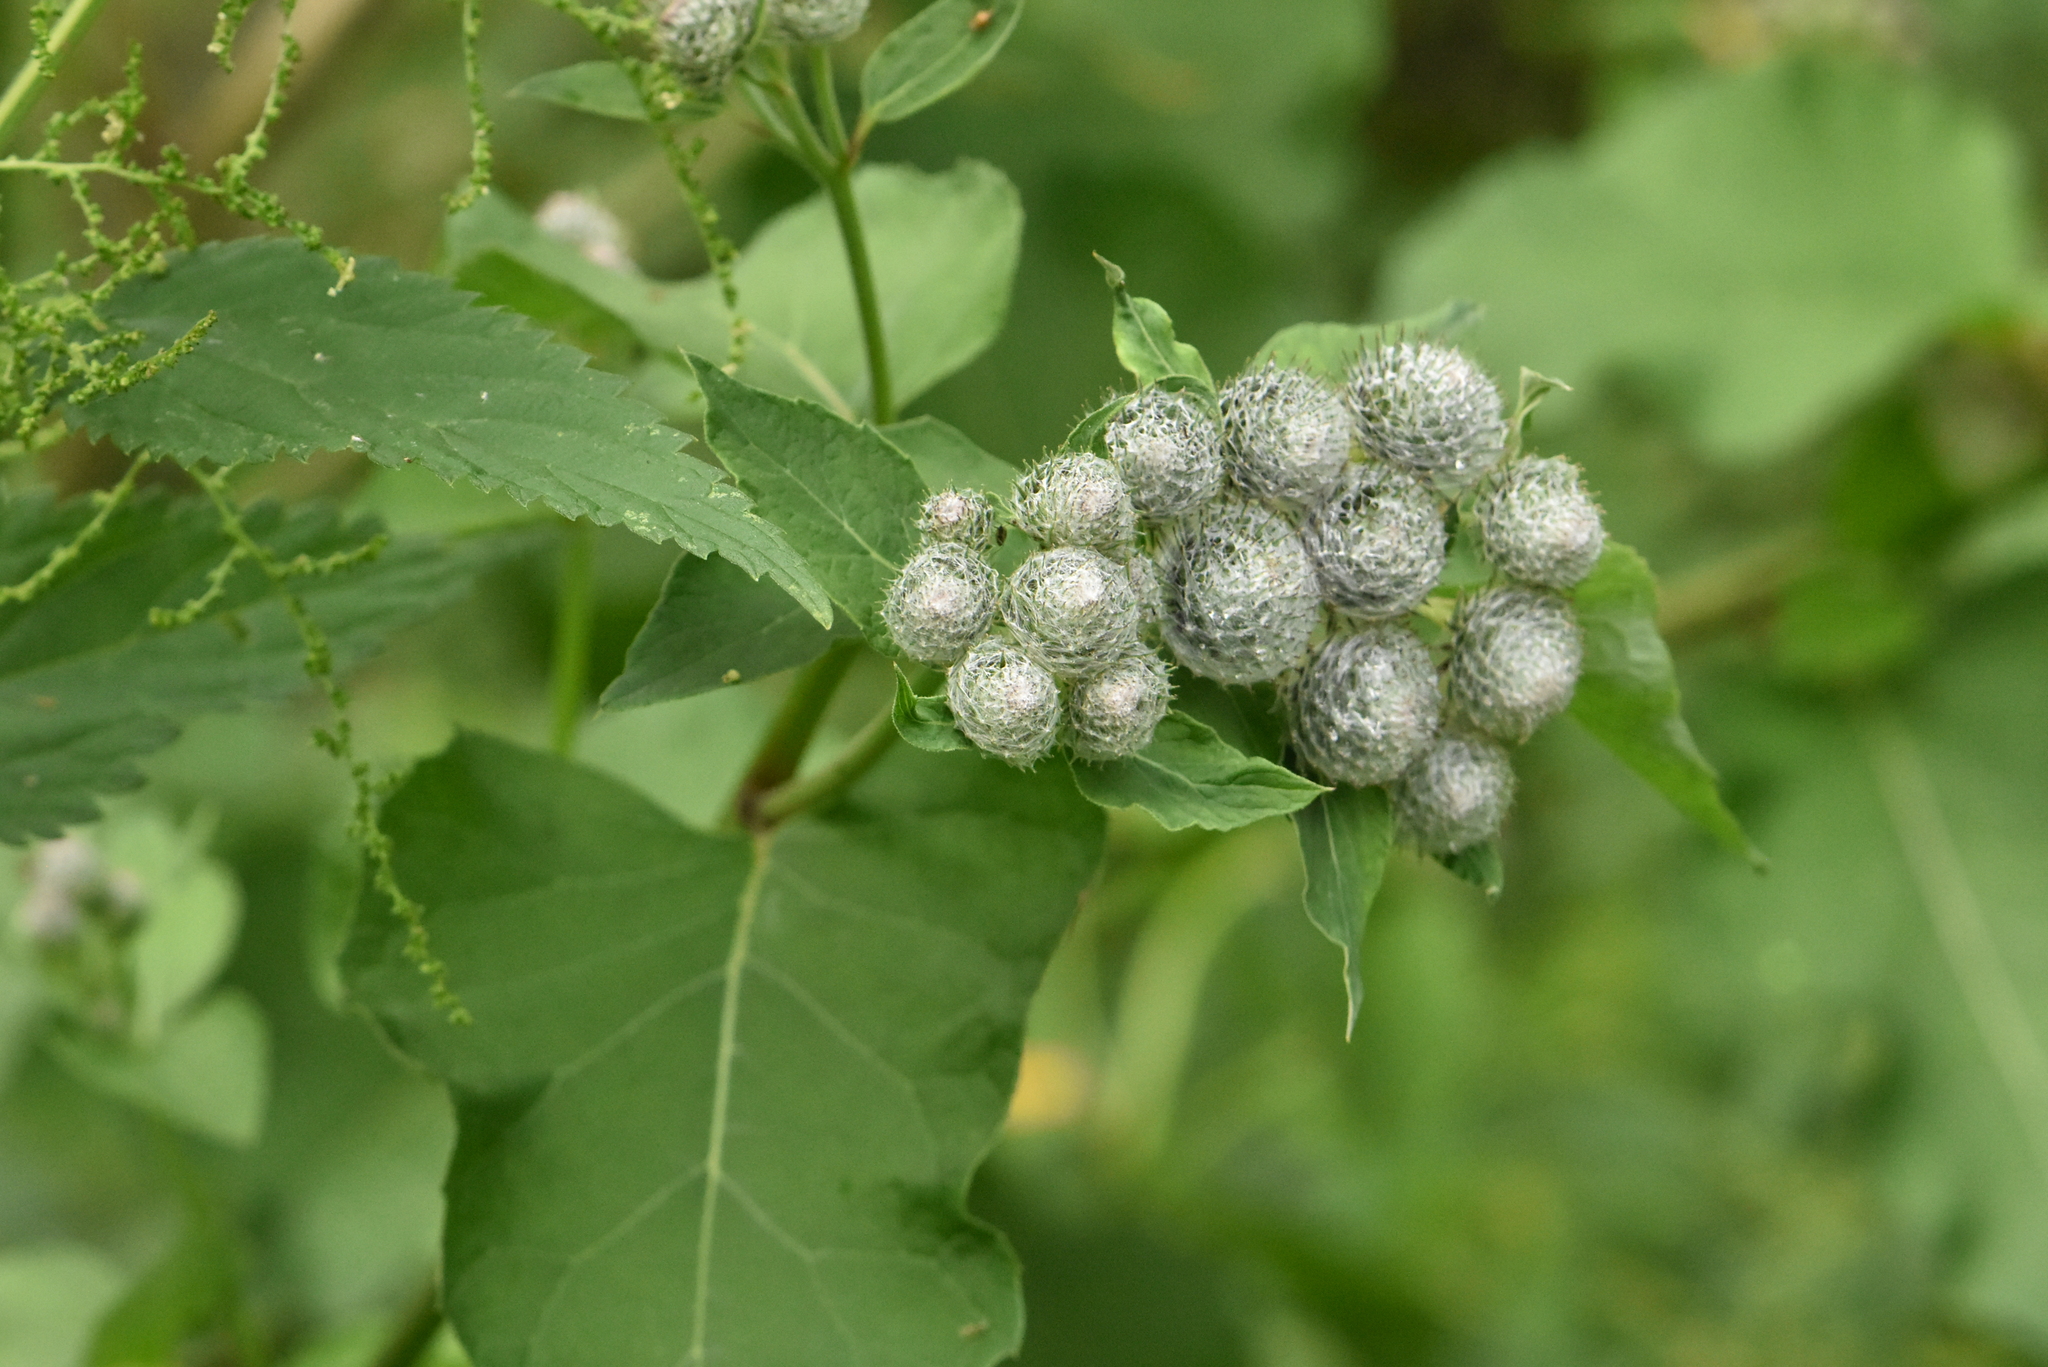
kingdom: Plantae
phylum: Tracheophyta
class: Magnoliopsida
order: Asterales
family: Asteraceae
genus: Arctium
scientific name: Arctium tomentosum
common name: Woolly burdock
